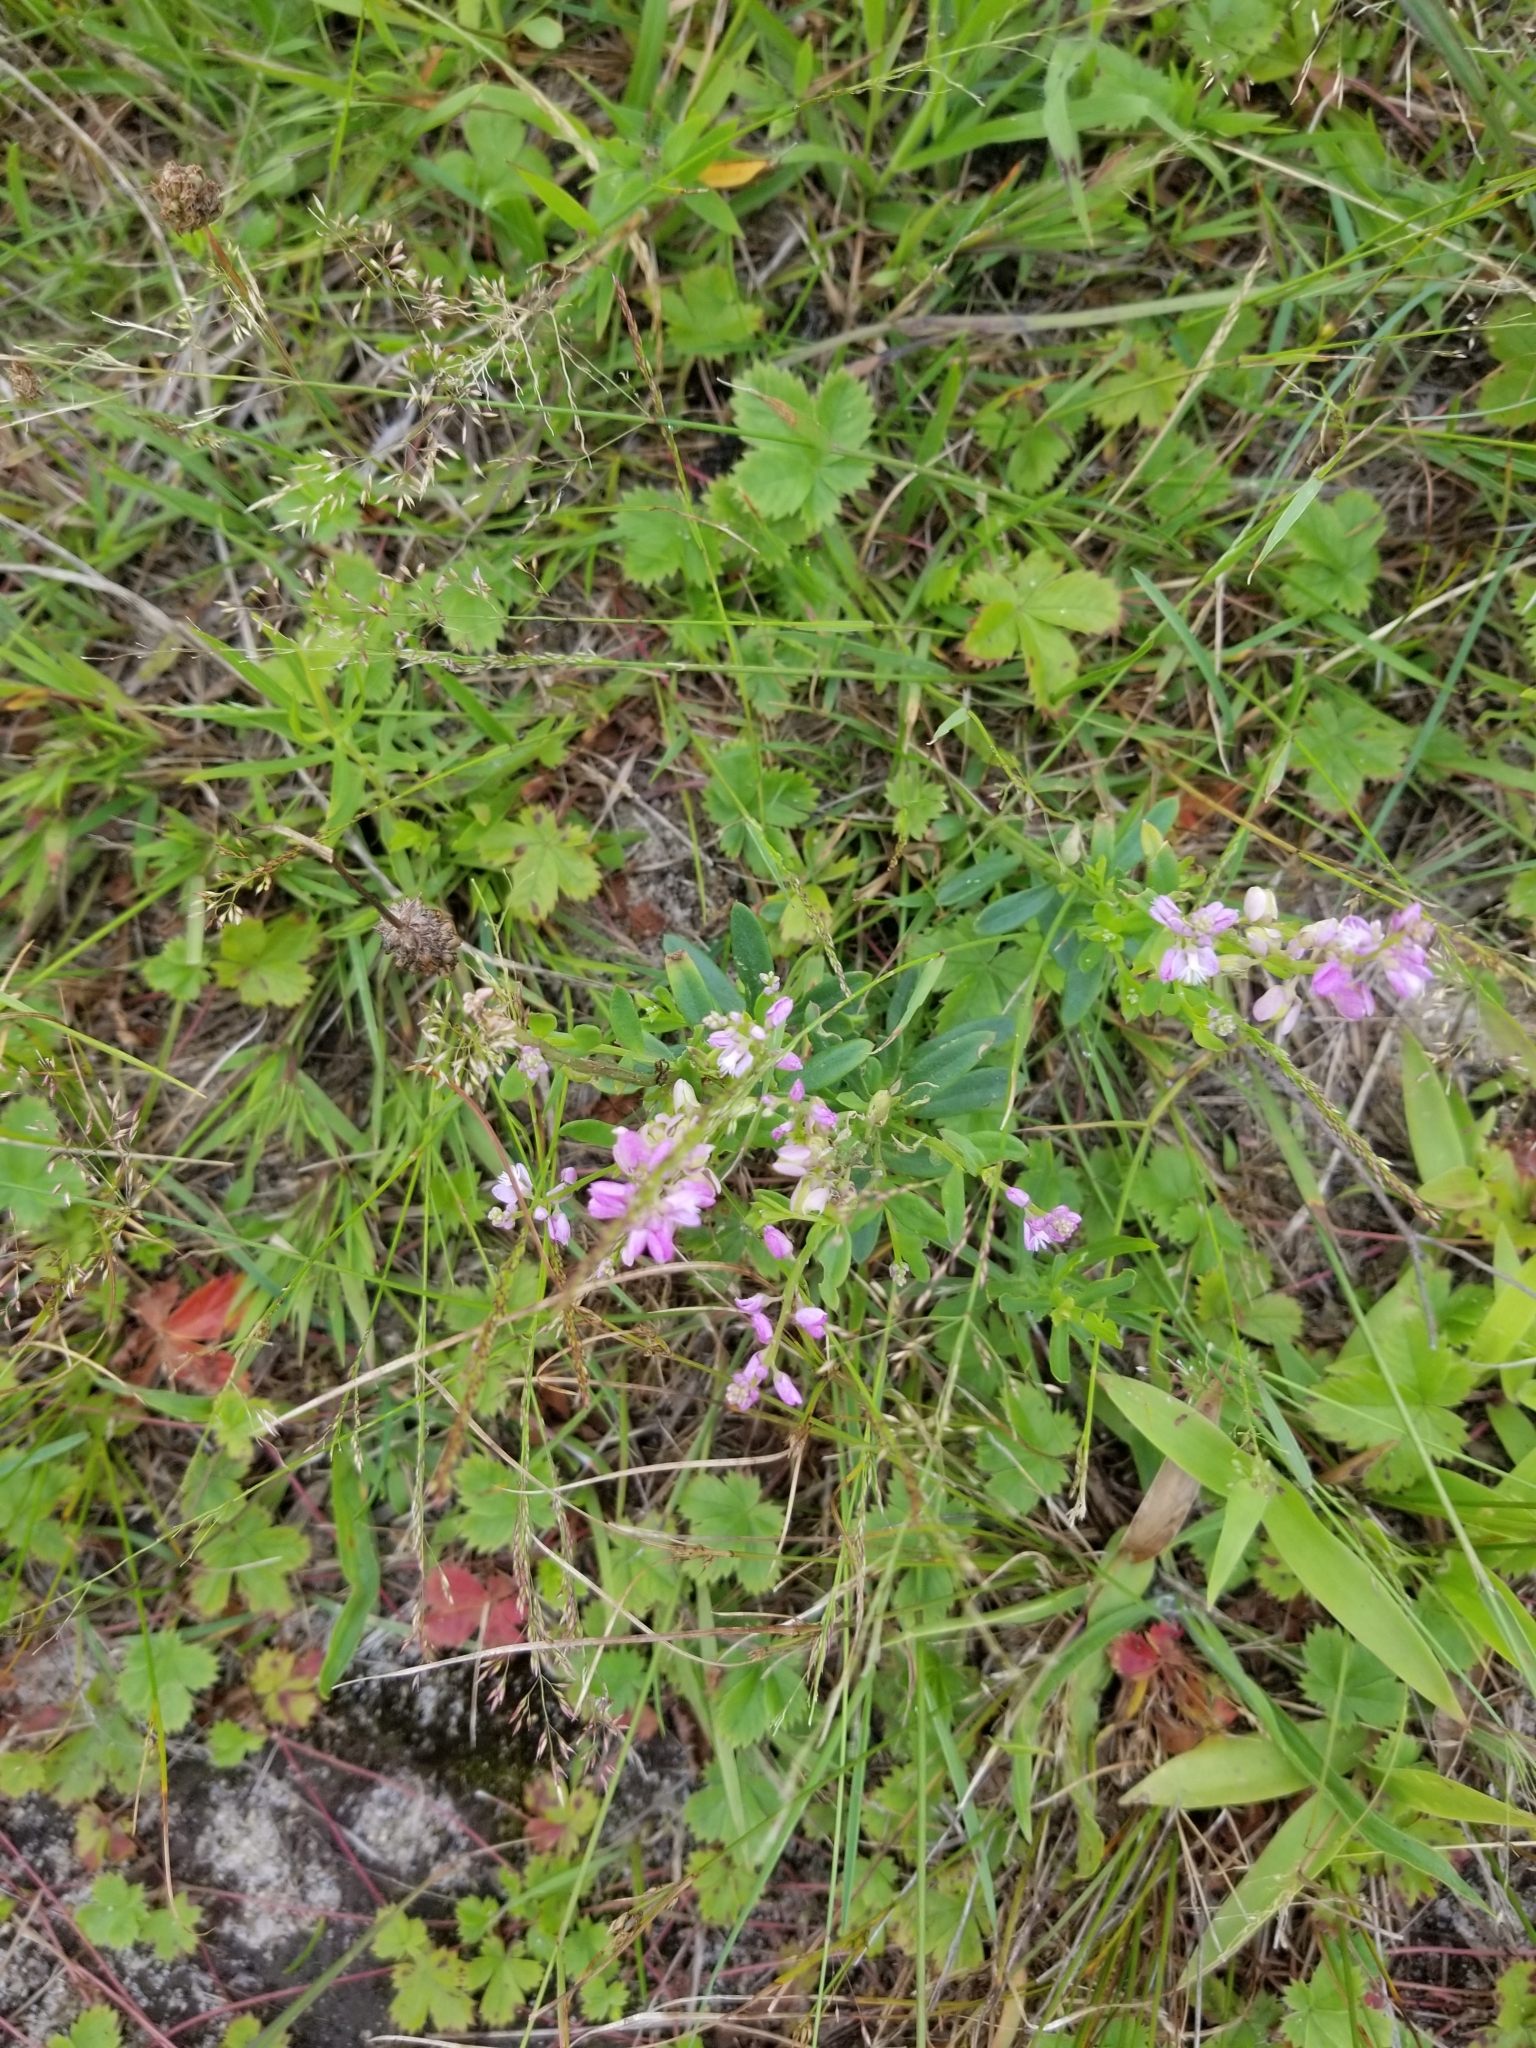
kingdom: Plantae
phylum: Tracheophyta
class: Magnoliopsida
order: Fabales
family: Polygalaceae
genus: Polygala
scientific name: Polygala polygama
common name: Bitter milkwort
